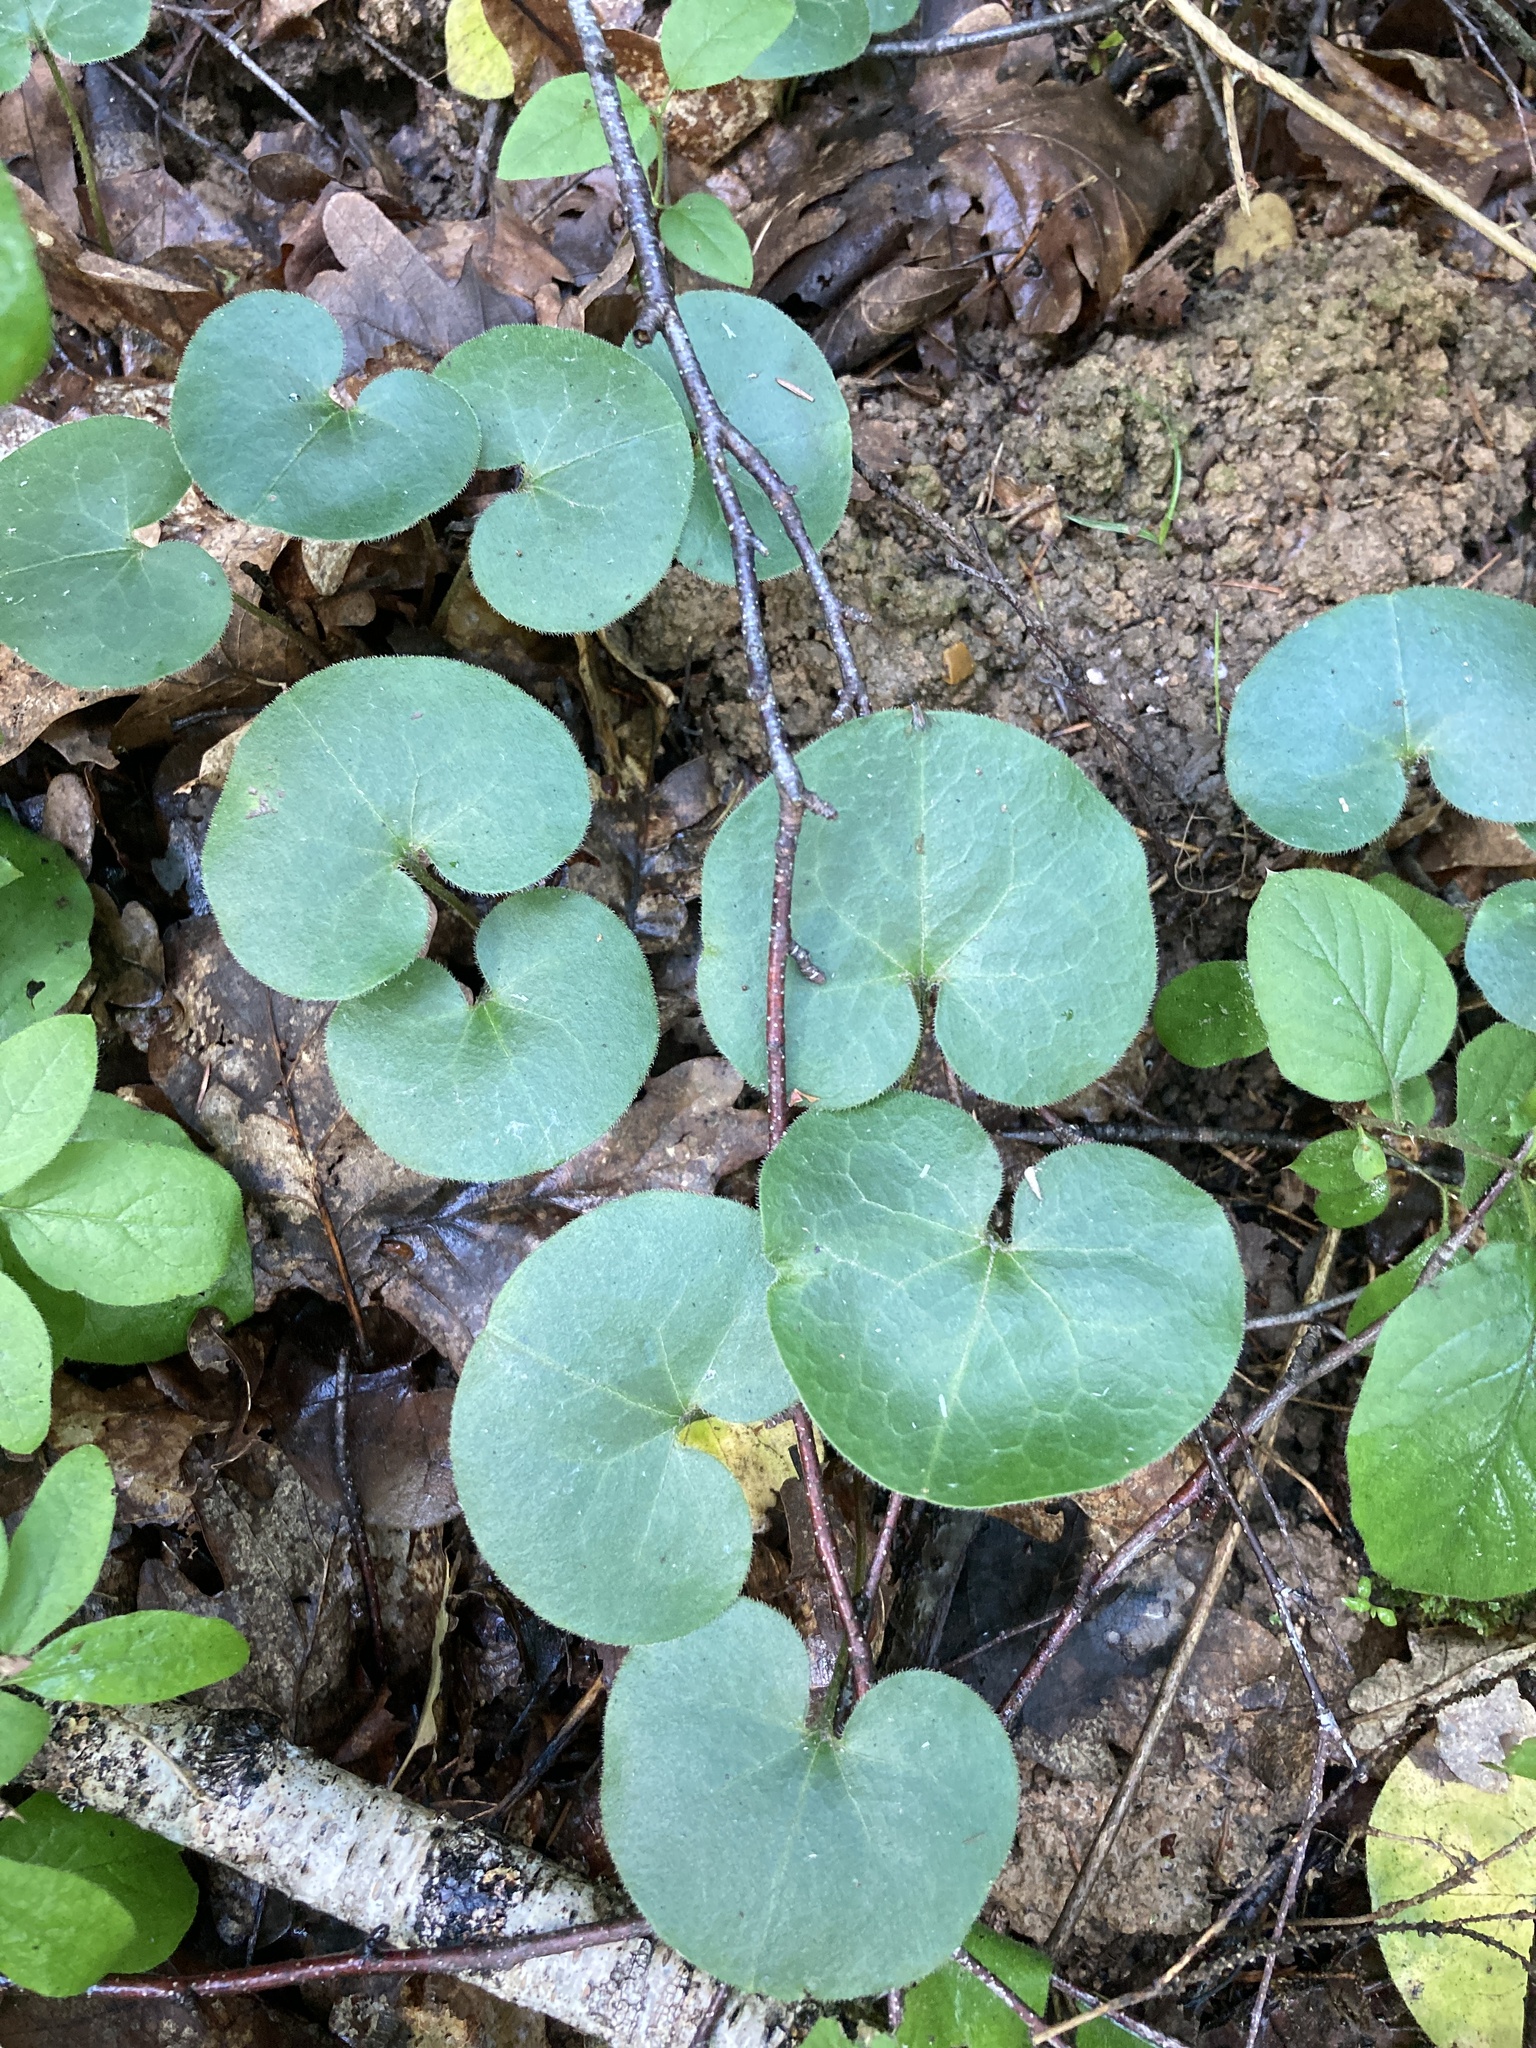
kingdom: Plantae
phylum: Tracheophyta
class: Magnoliopsida
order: Piperales
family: Aristolochiaceae
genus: Asarum
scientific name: Asarum europaeum
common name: Asarabacca
